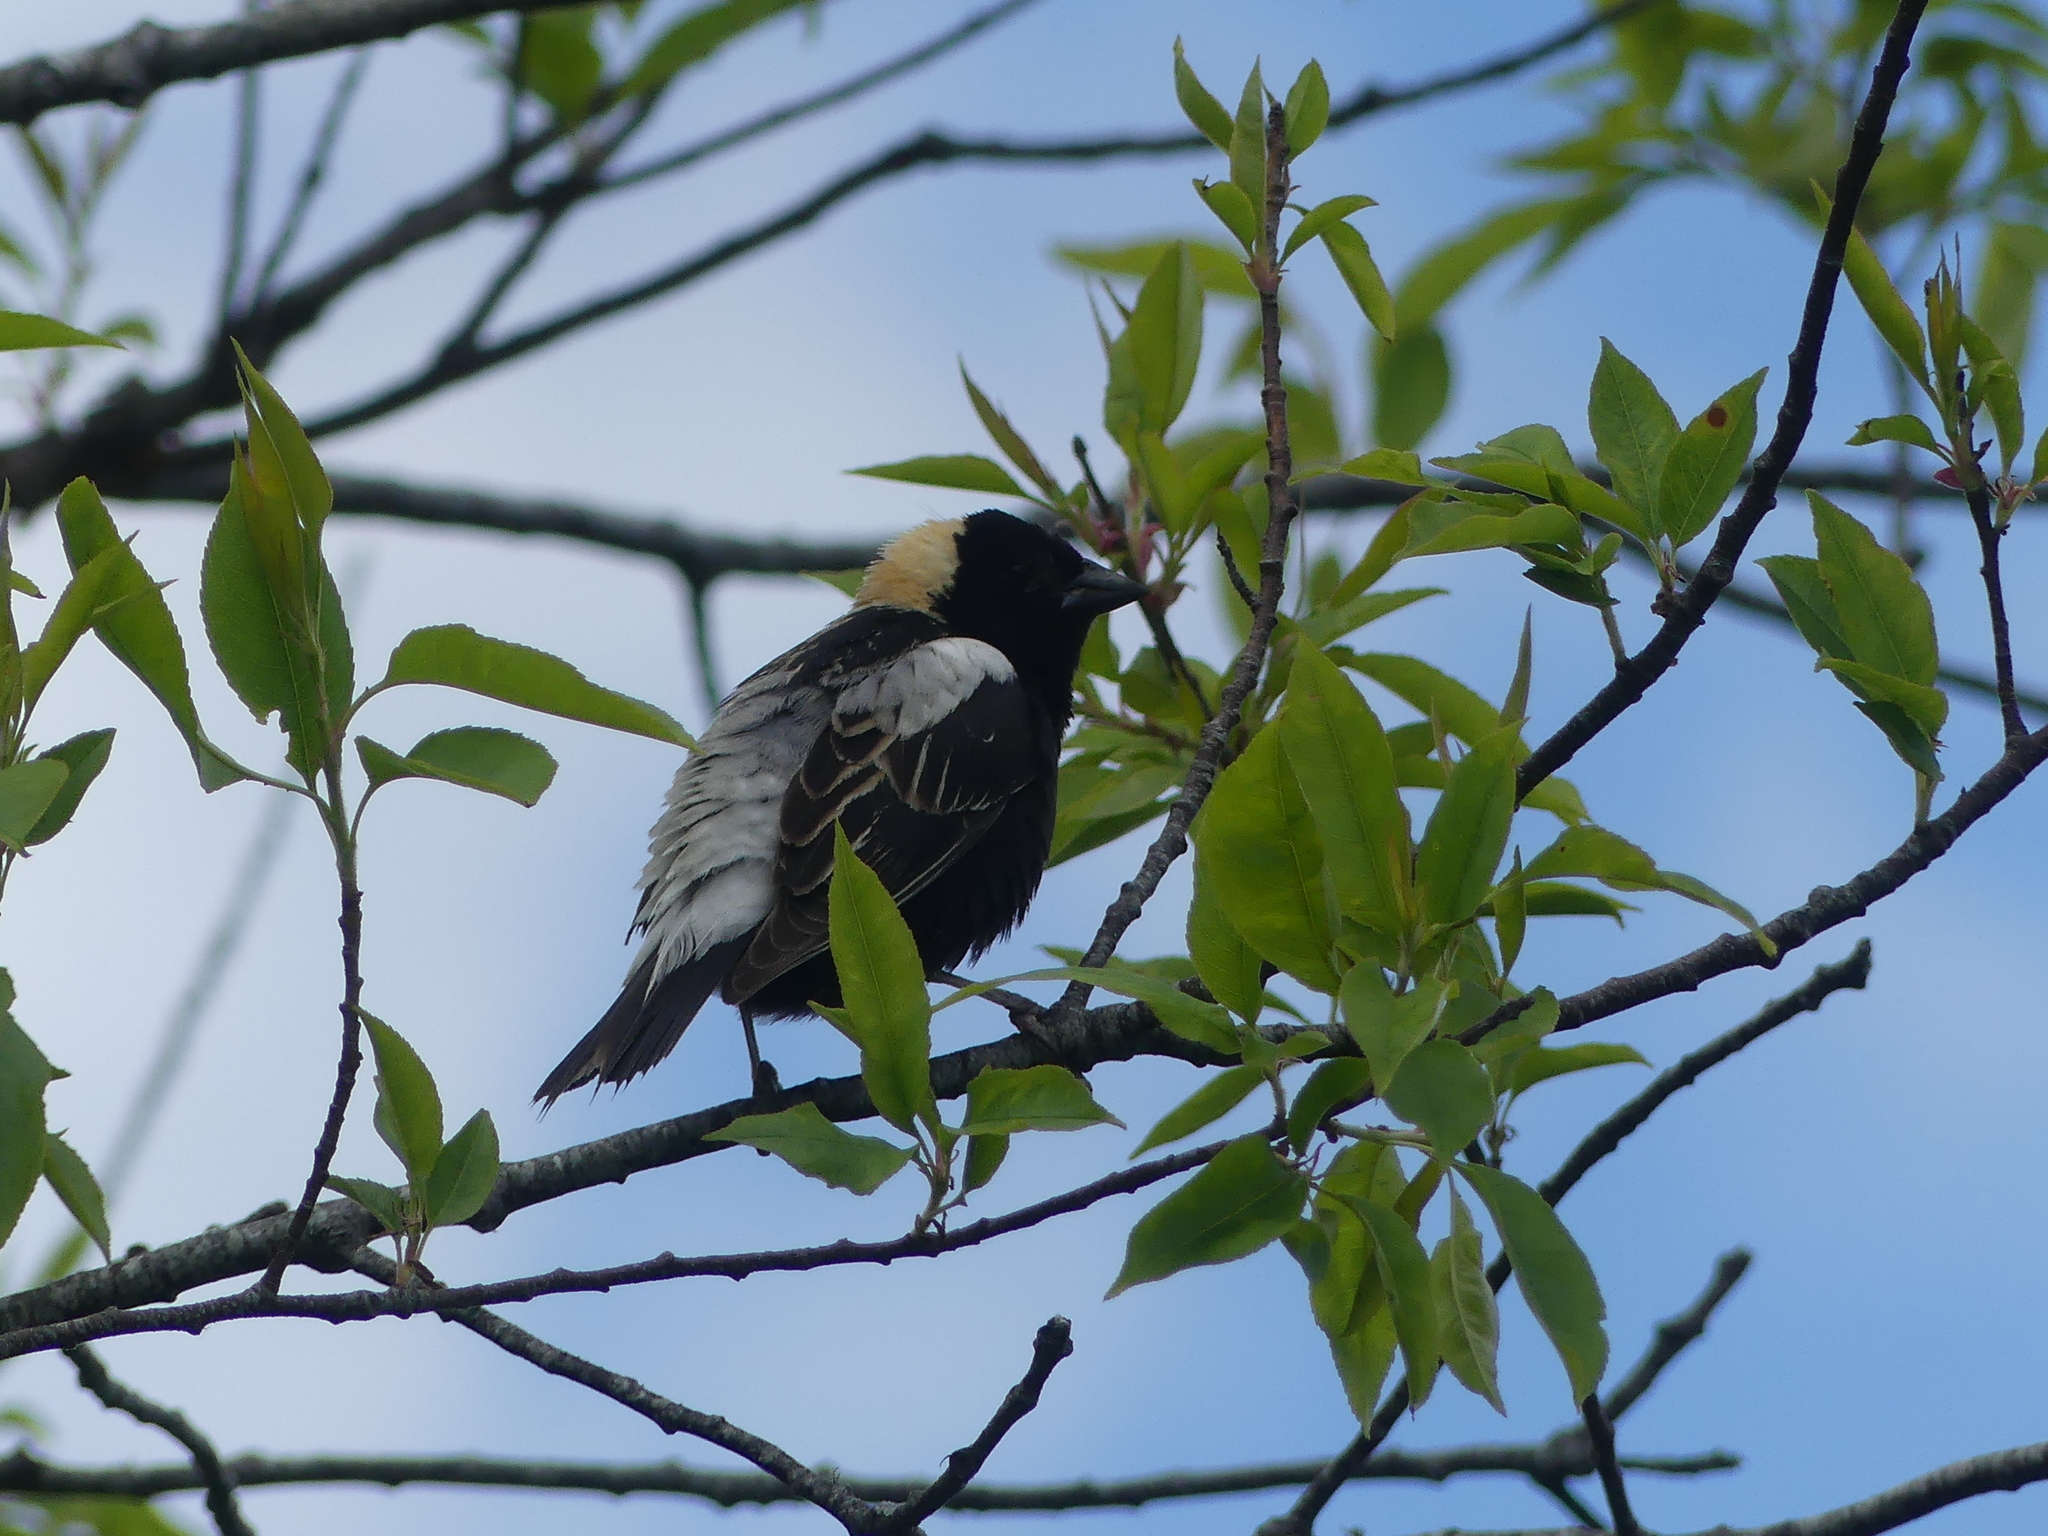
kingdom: Animalia
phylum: Chordata
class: Aves
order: Passeriformes
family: Icteridae
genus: Dolichonyx
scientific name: Dolichonyx oryzivorus
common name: Bobolink
